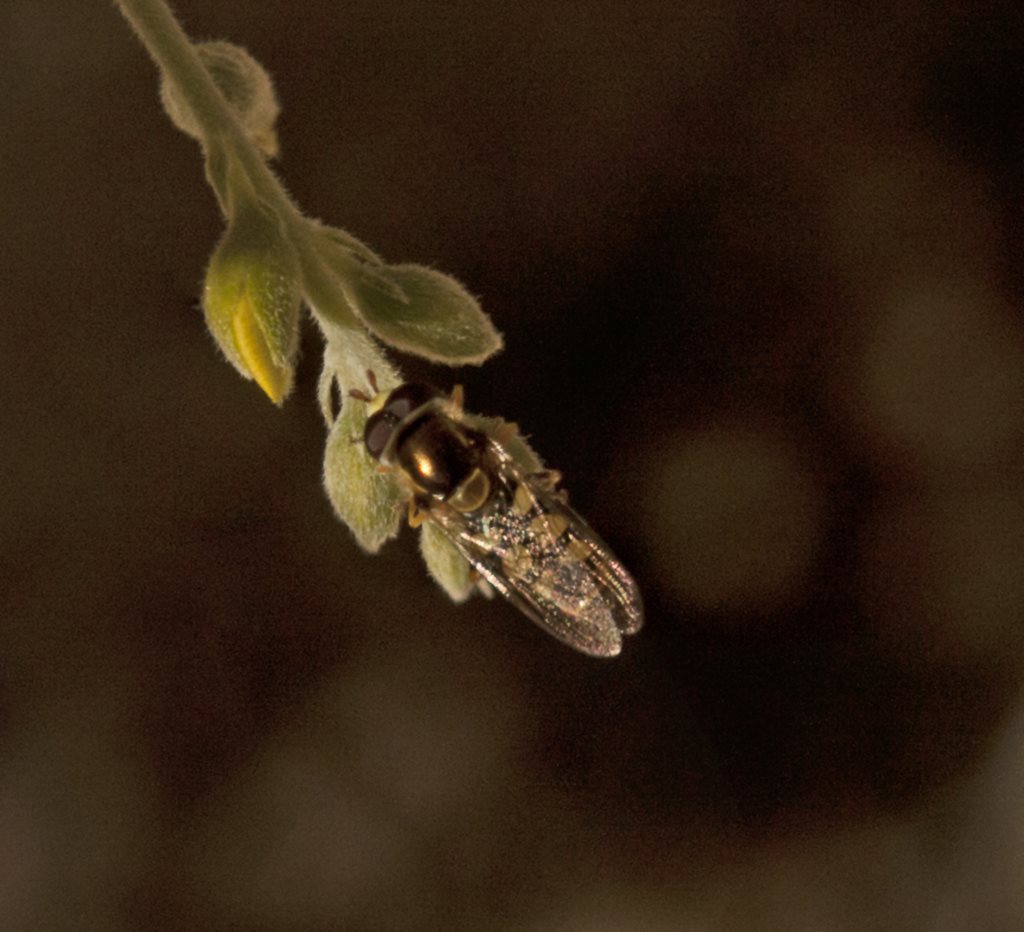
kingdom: Animalia
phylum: Arthropoda
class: Insecta
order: Diptera
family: Syrphidae
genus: Melangyna
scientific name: Melangyna viridiceps
